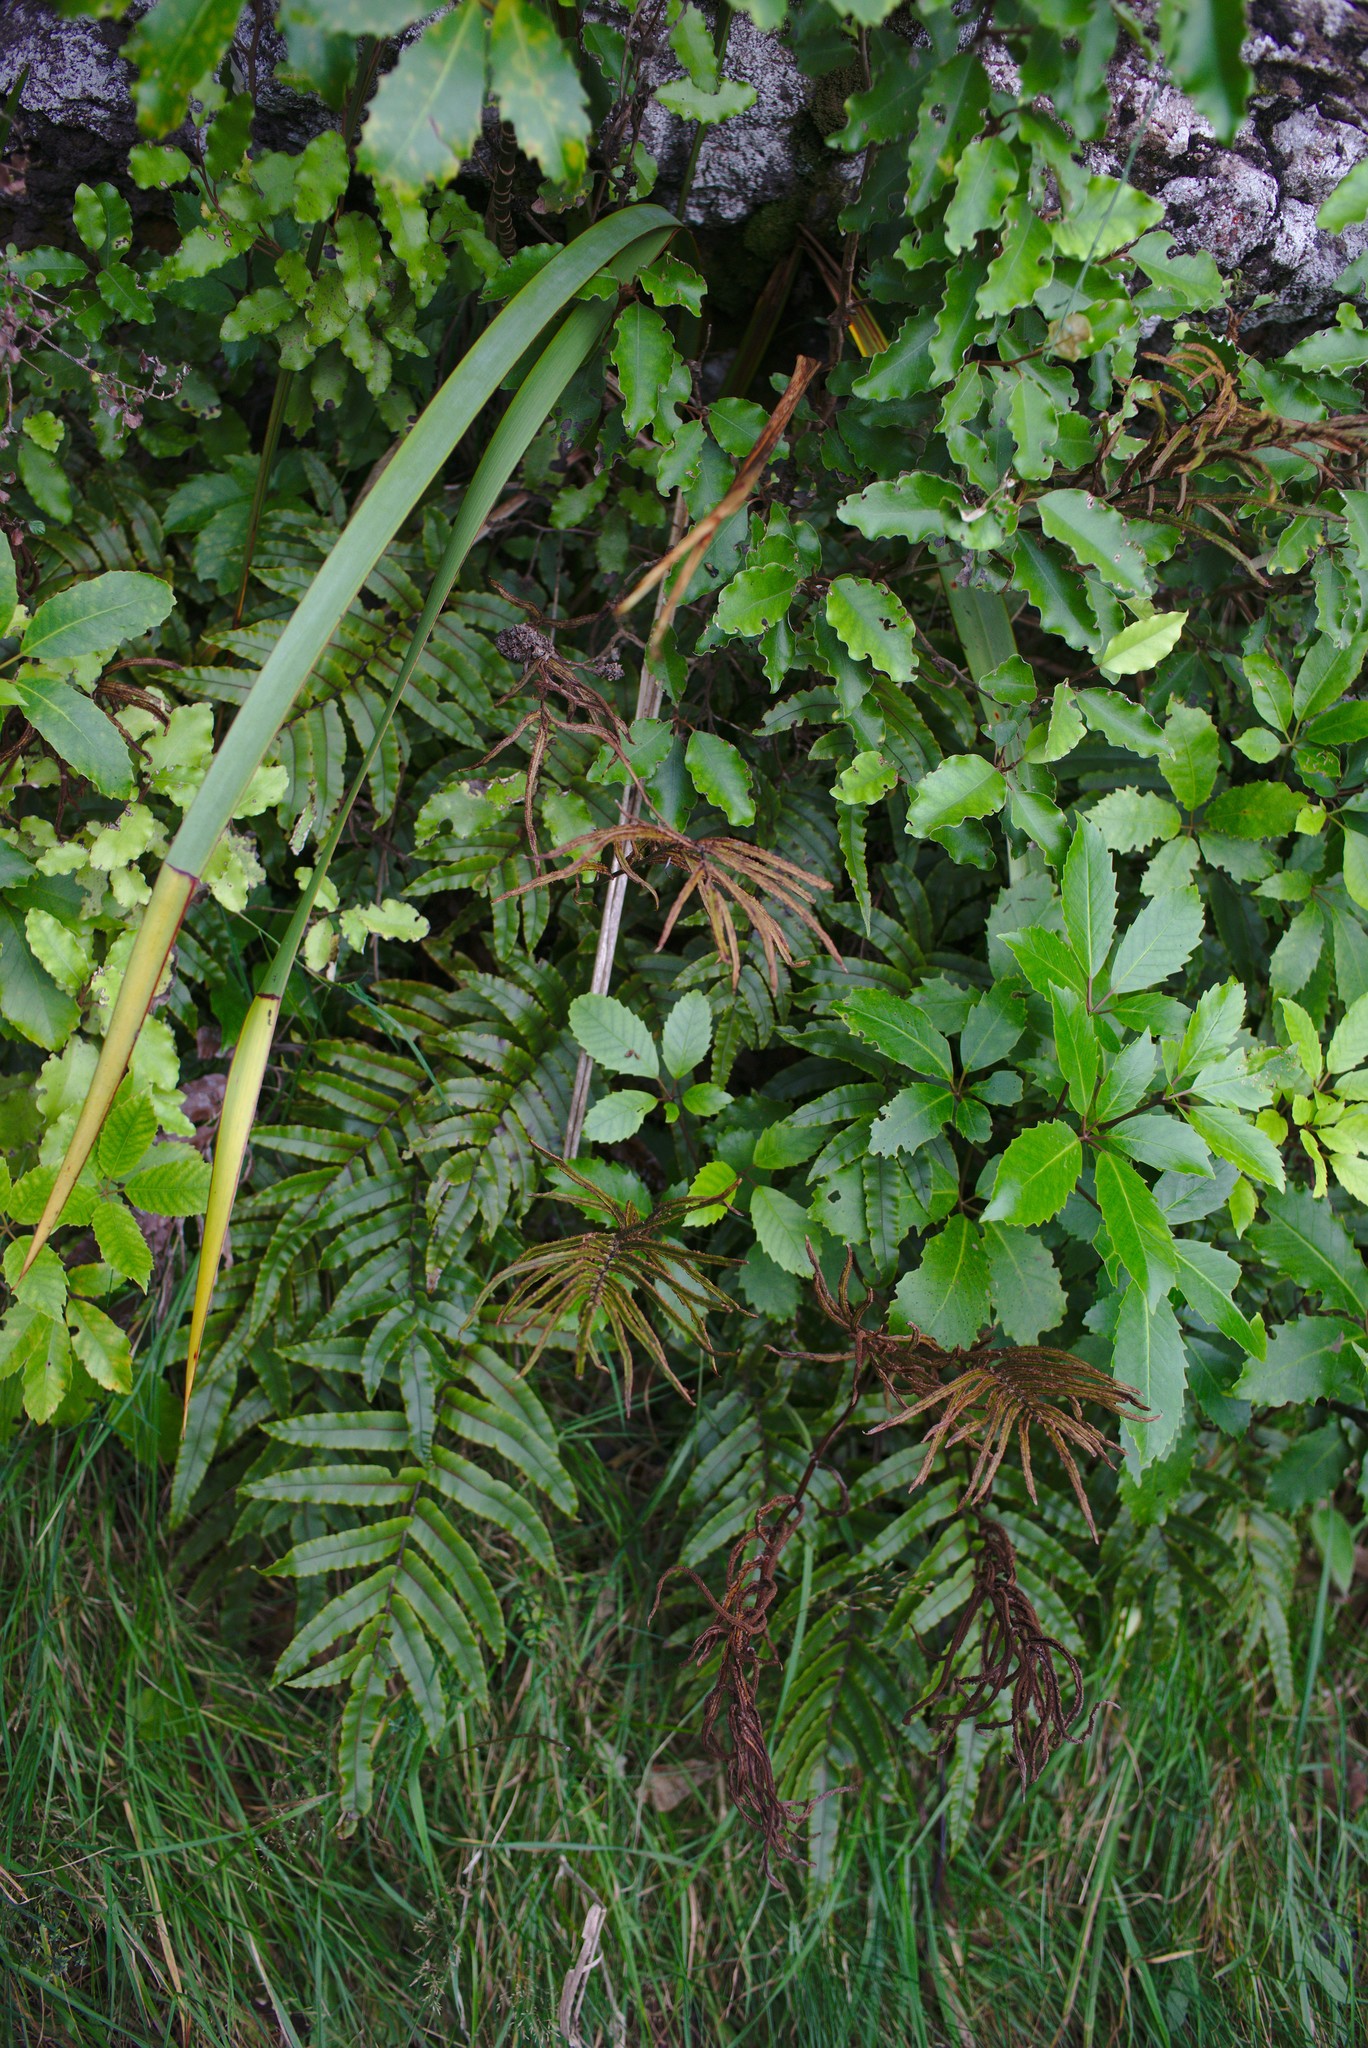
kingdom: Plantae
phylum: Tracheophyta
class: Polypodiopsida
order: Polypodiales
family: Blechnaceae
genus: Parablechnum
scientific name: Parablechnum procerum
